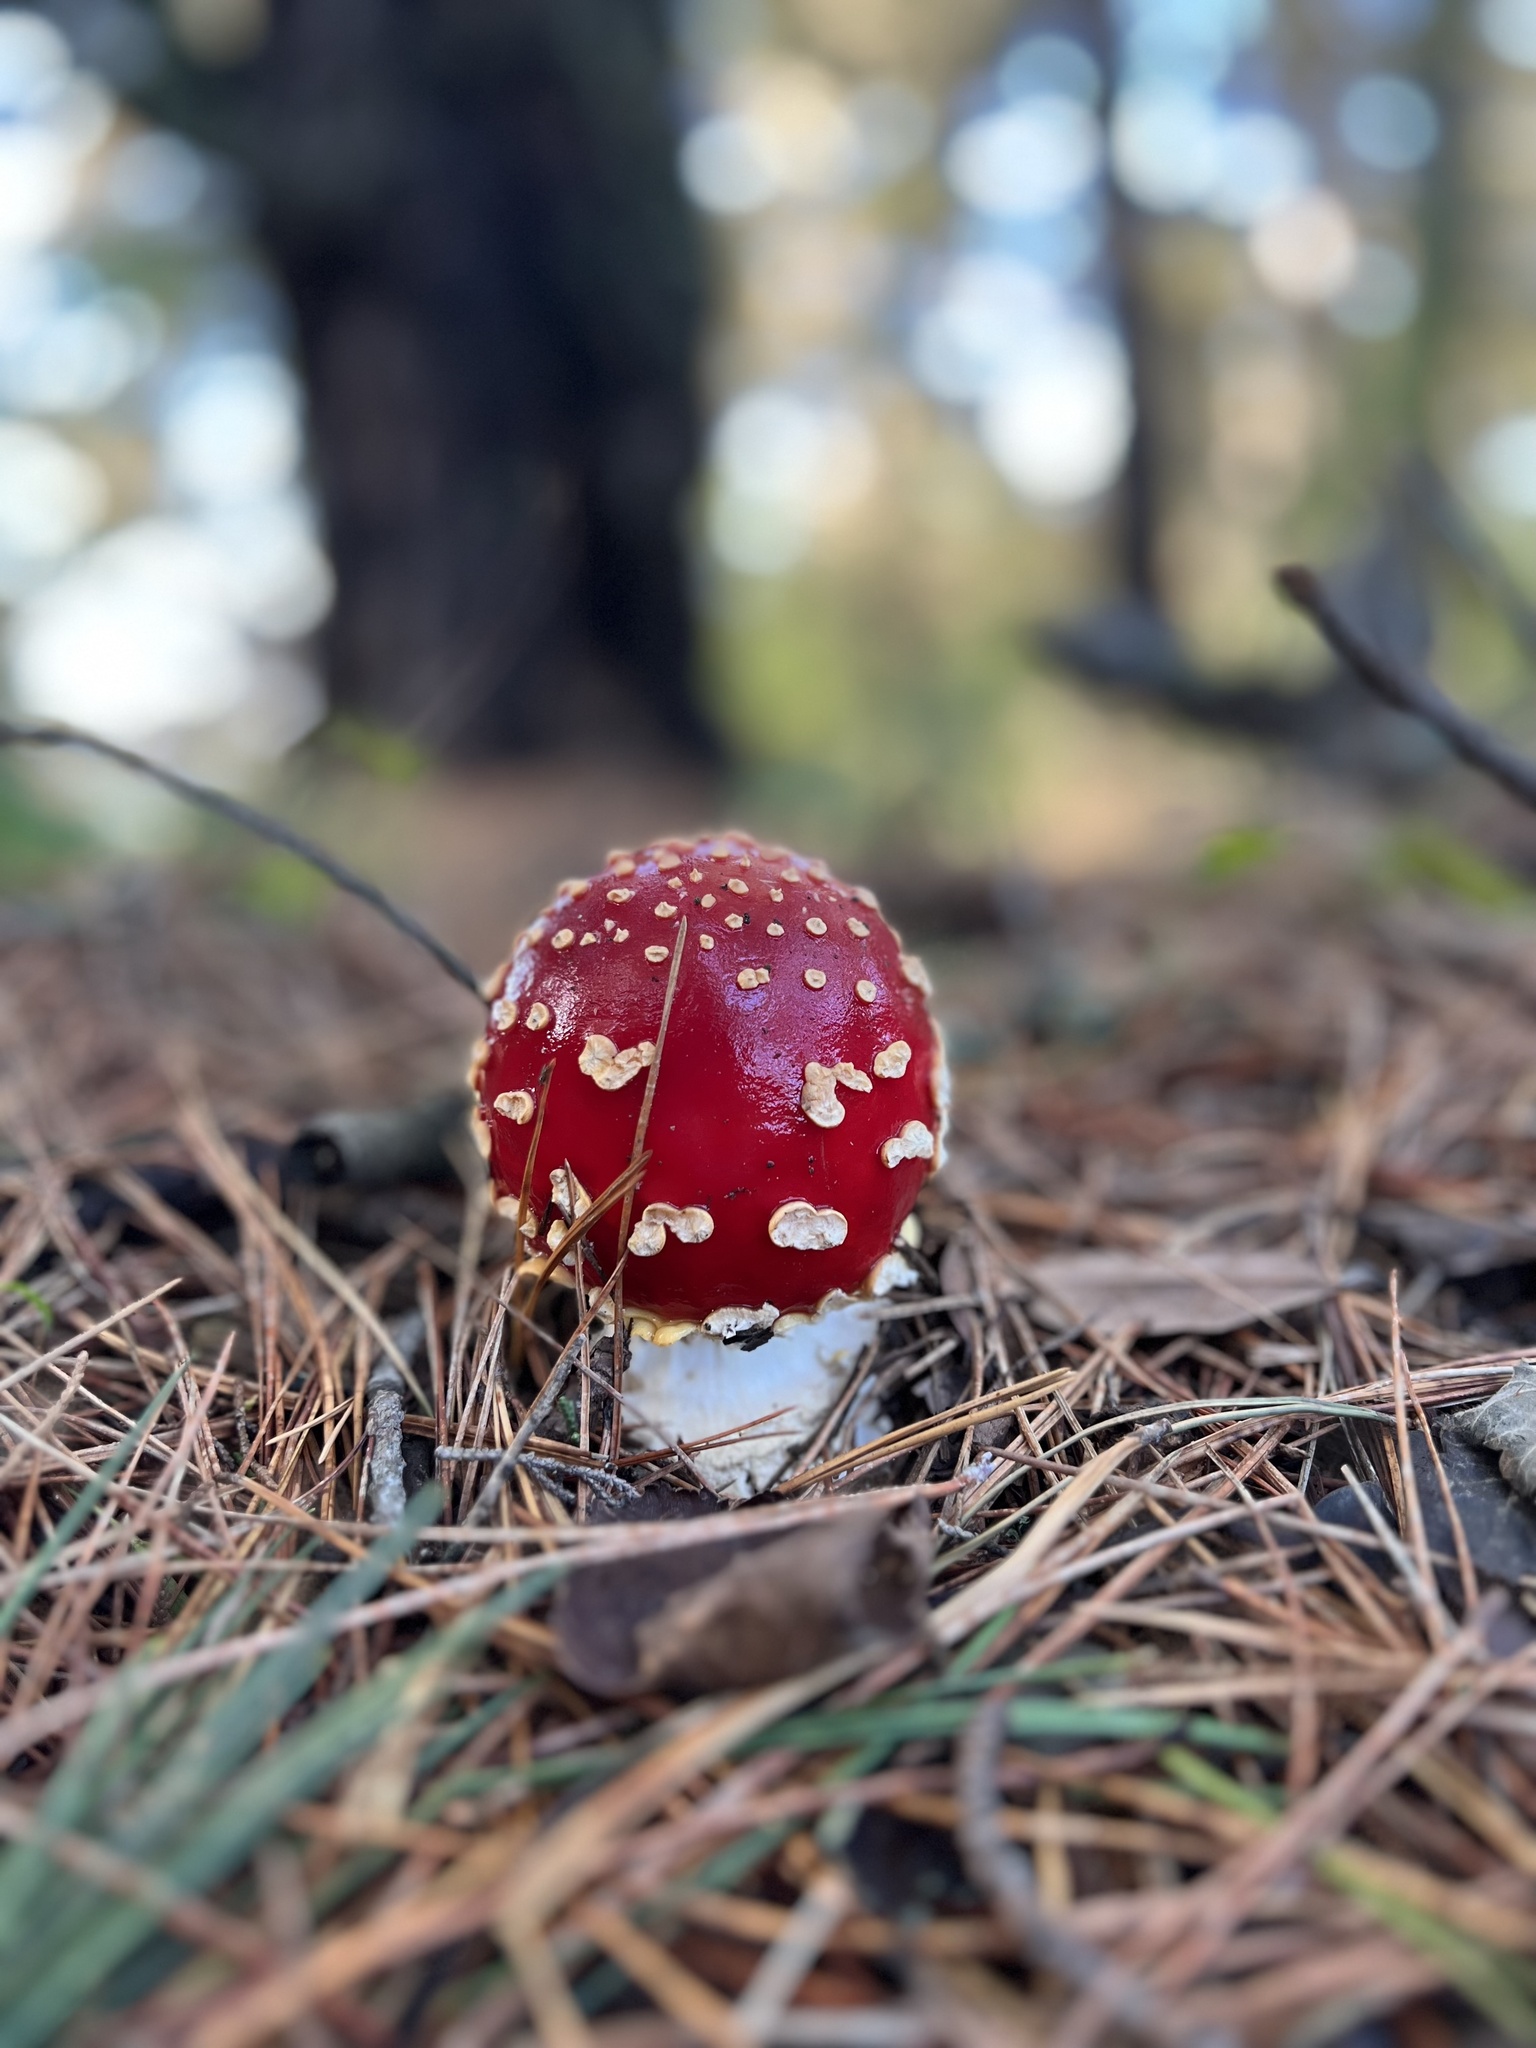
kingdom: Fungi
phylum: Basidiomycota
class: Agaricomycetes
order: Agaricales
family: Amanitaceae
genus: Amanita
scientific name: Amanita muscaria
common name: Fly agaric
